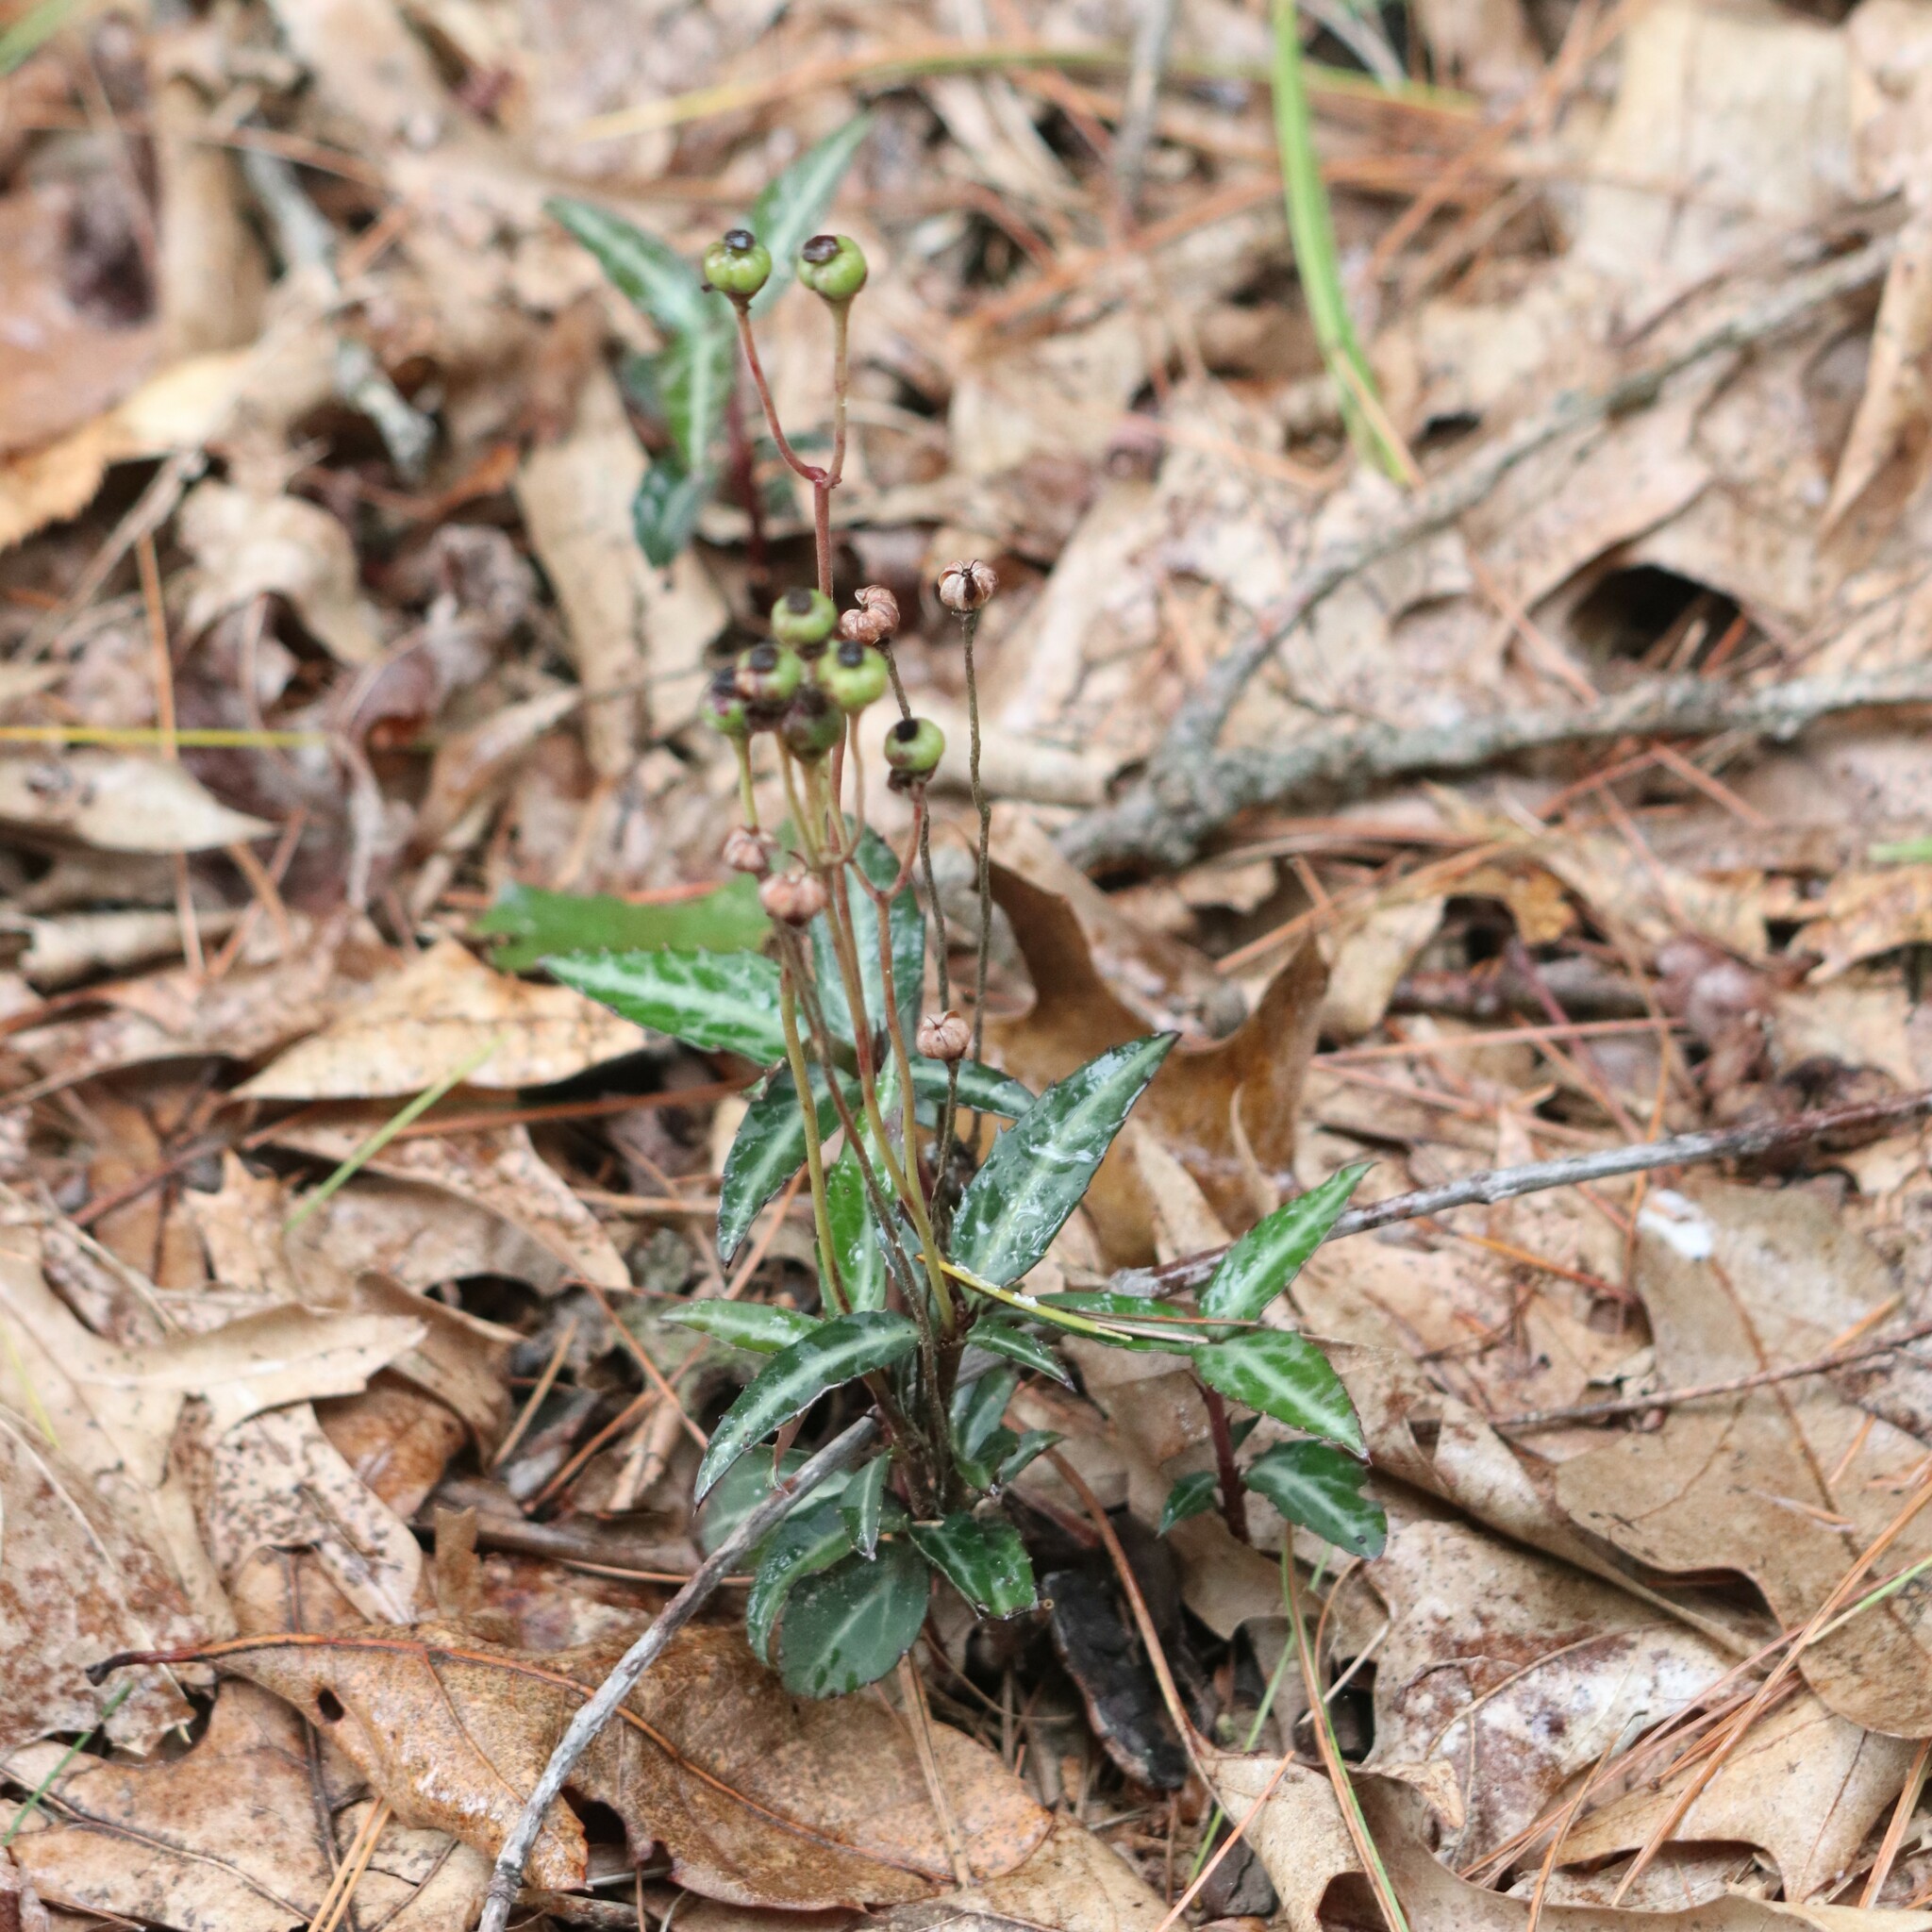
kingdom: Plantae
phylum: Tracheophyta
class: Magnoliopsida
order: Ericales
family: Ericaceae
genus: Chimaphila
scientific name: Chimaphila maculata
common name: Spotted pipsissewa
